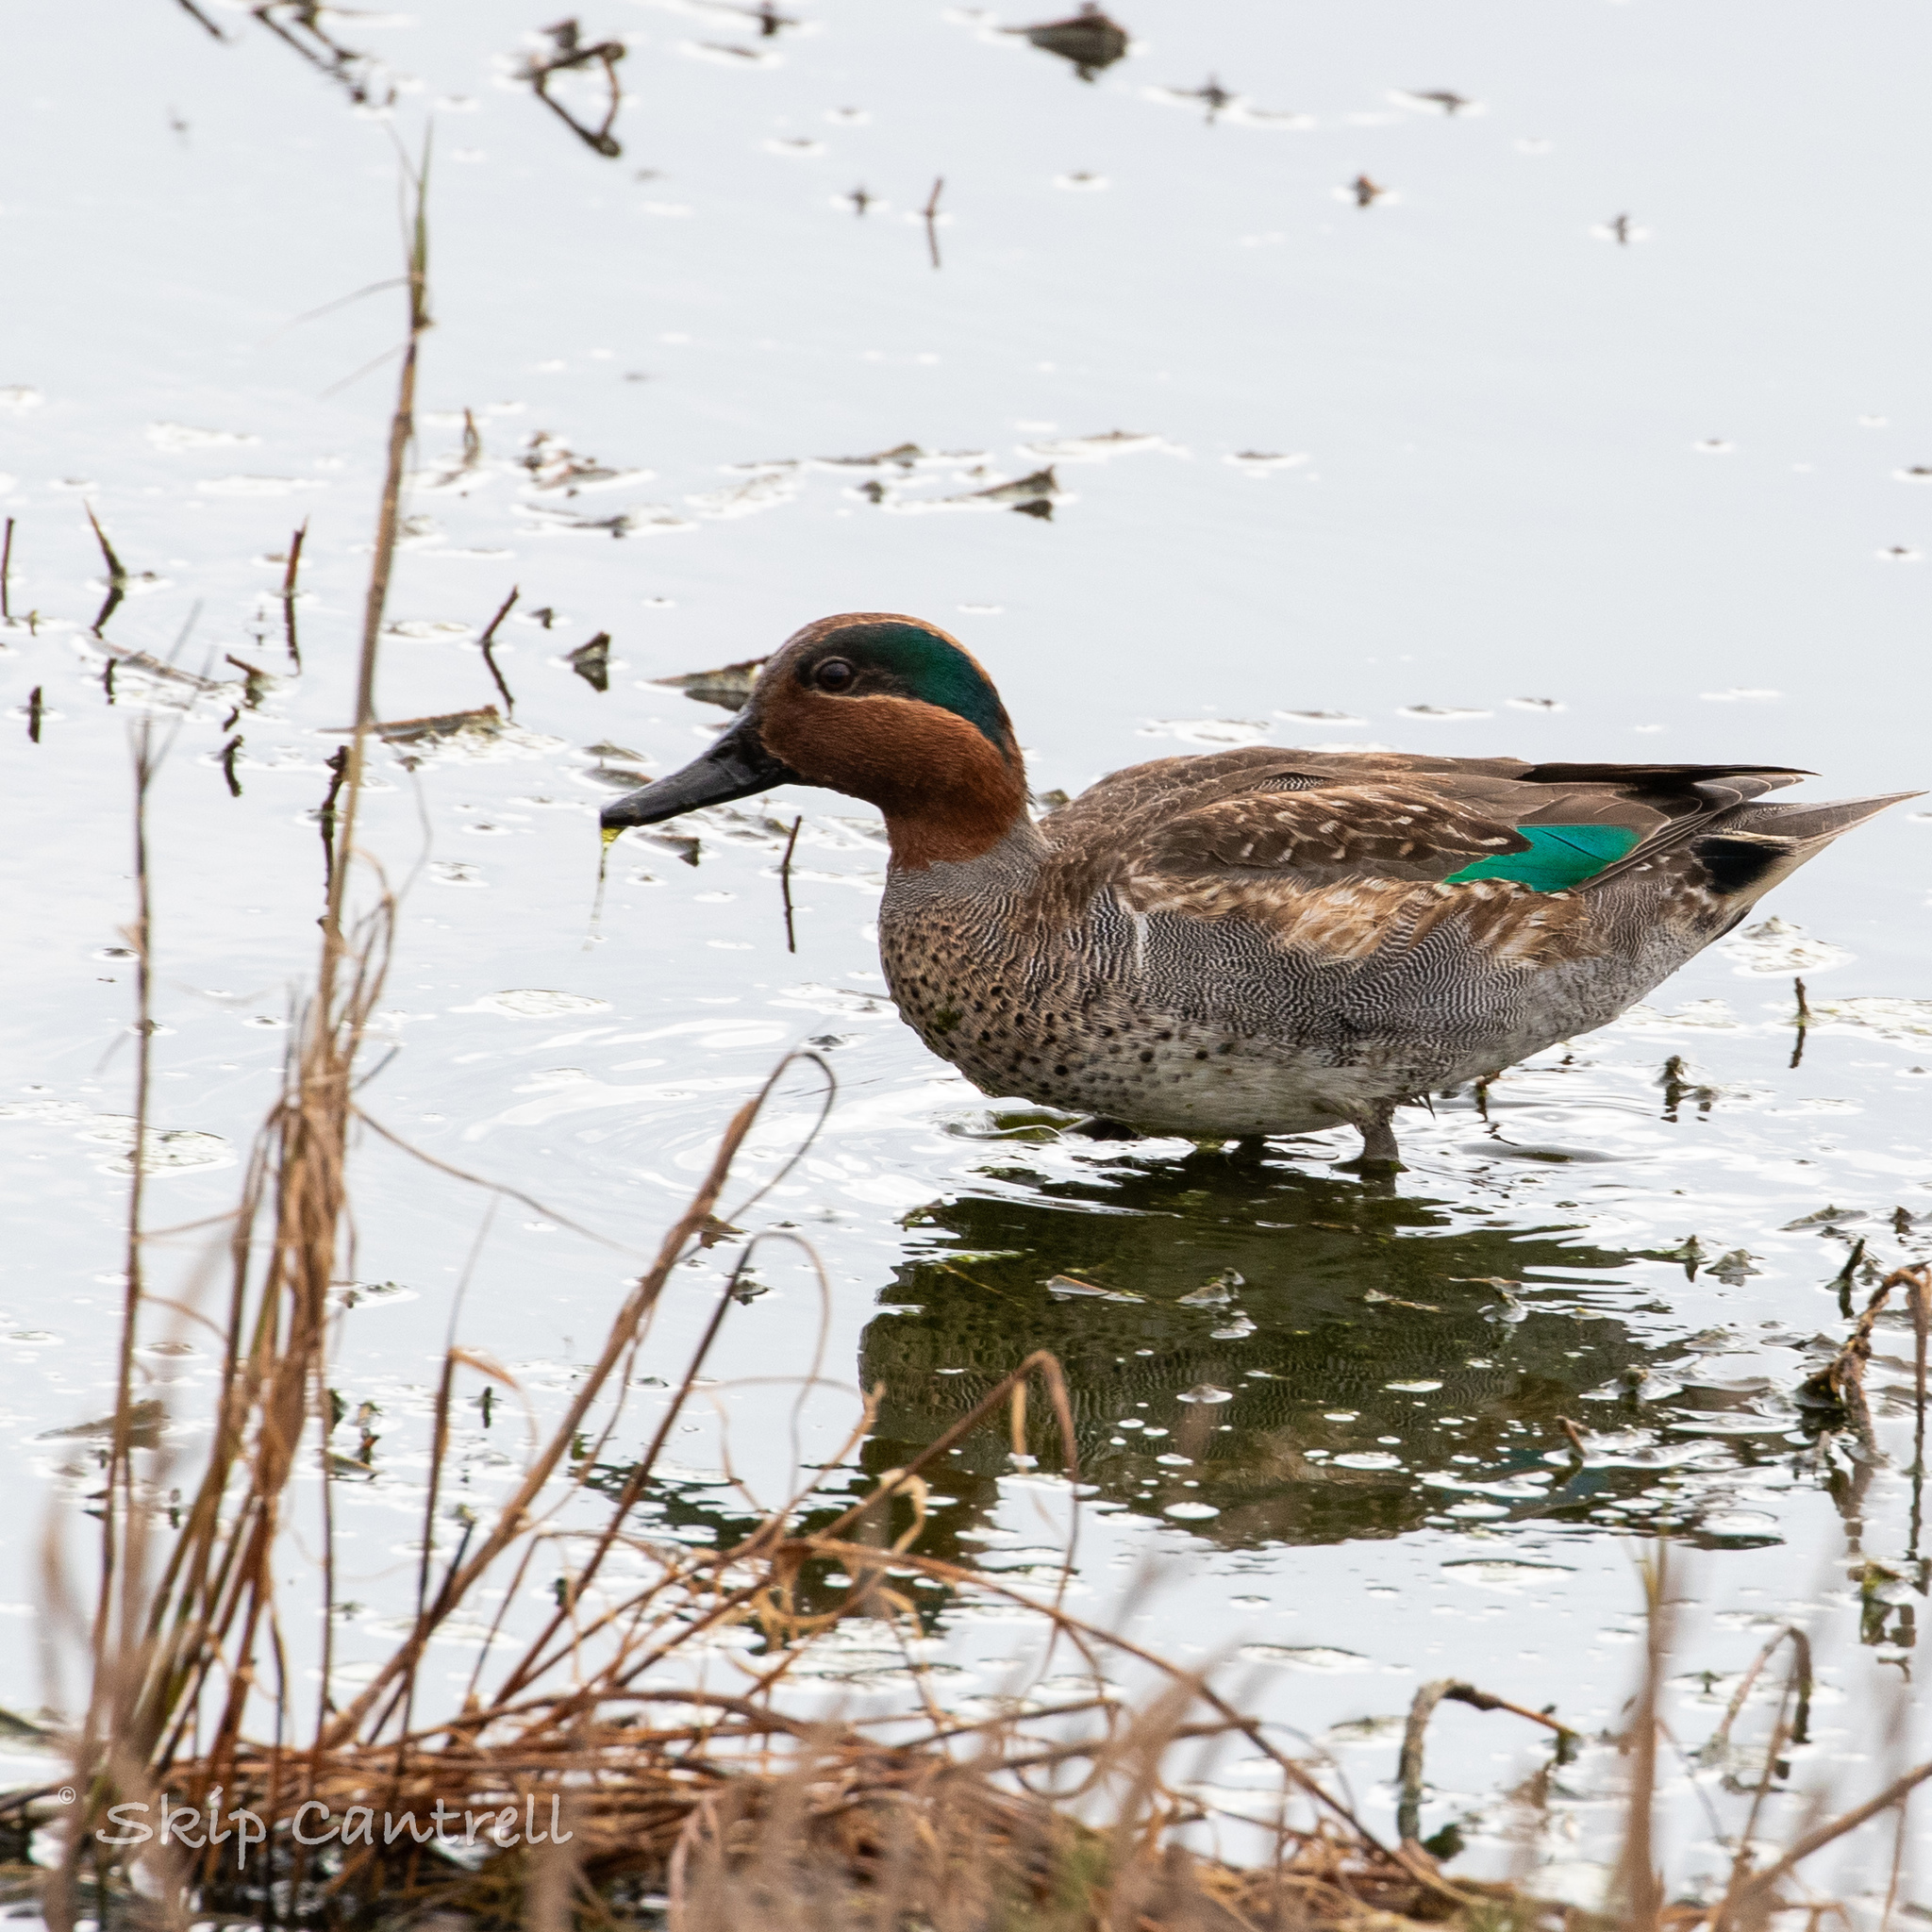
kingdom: Animalia
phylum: Chordata
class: Aves
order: Anseriformes
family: Anatidae
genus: Anas
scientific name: Anas crecca
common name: Eurasian teal
